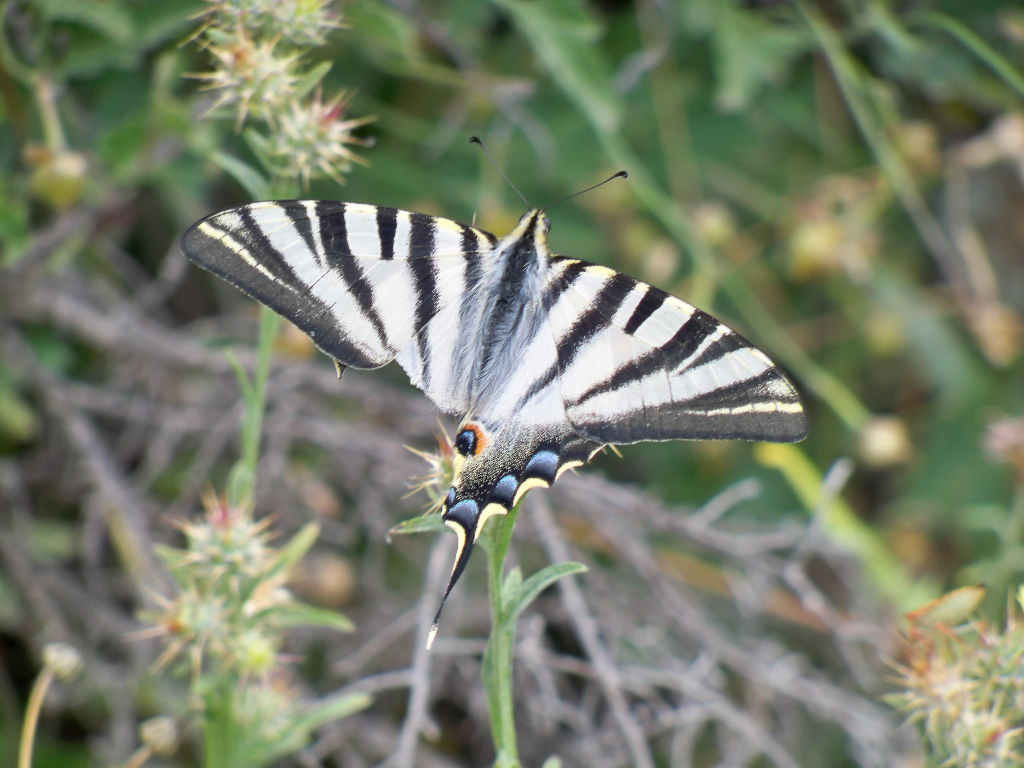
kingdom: Animalia
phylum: Arthropoda
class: Insecta
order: Lepidoptera
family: Papilionidae
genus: Iphiclides
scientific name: Iphiclides feisthamelii
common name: Iberian scarce swallowtail
